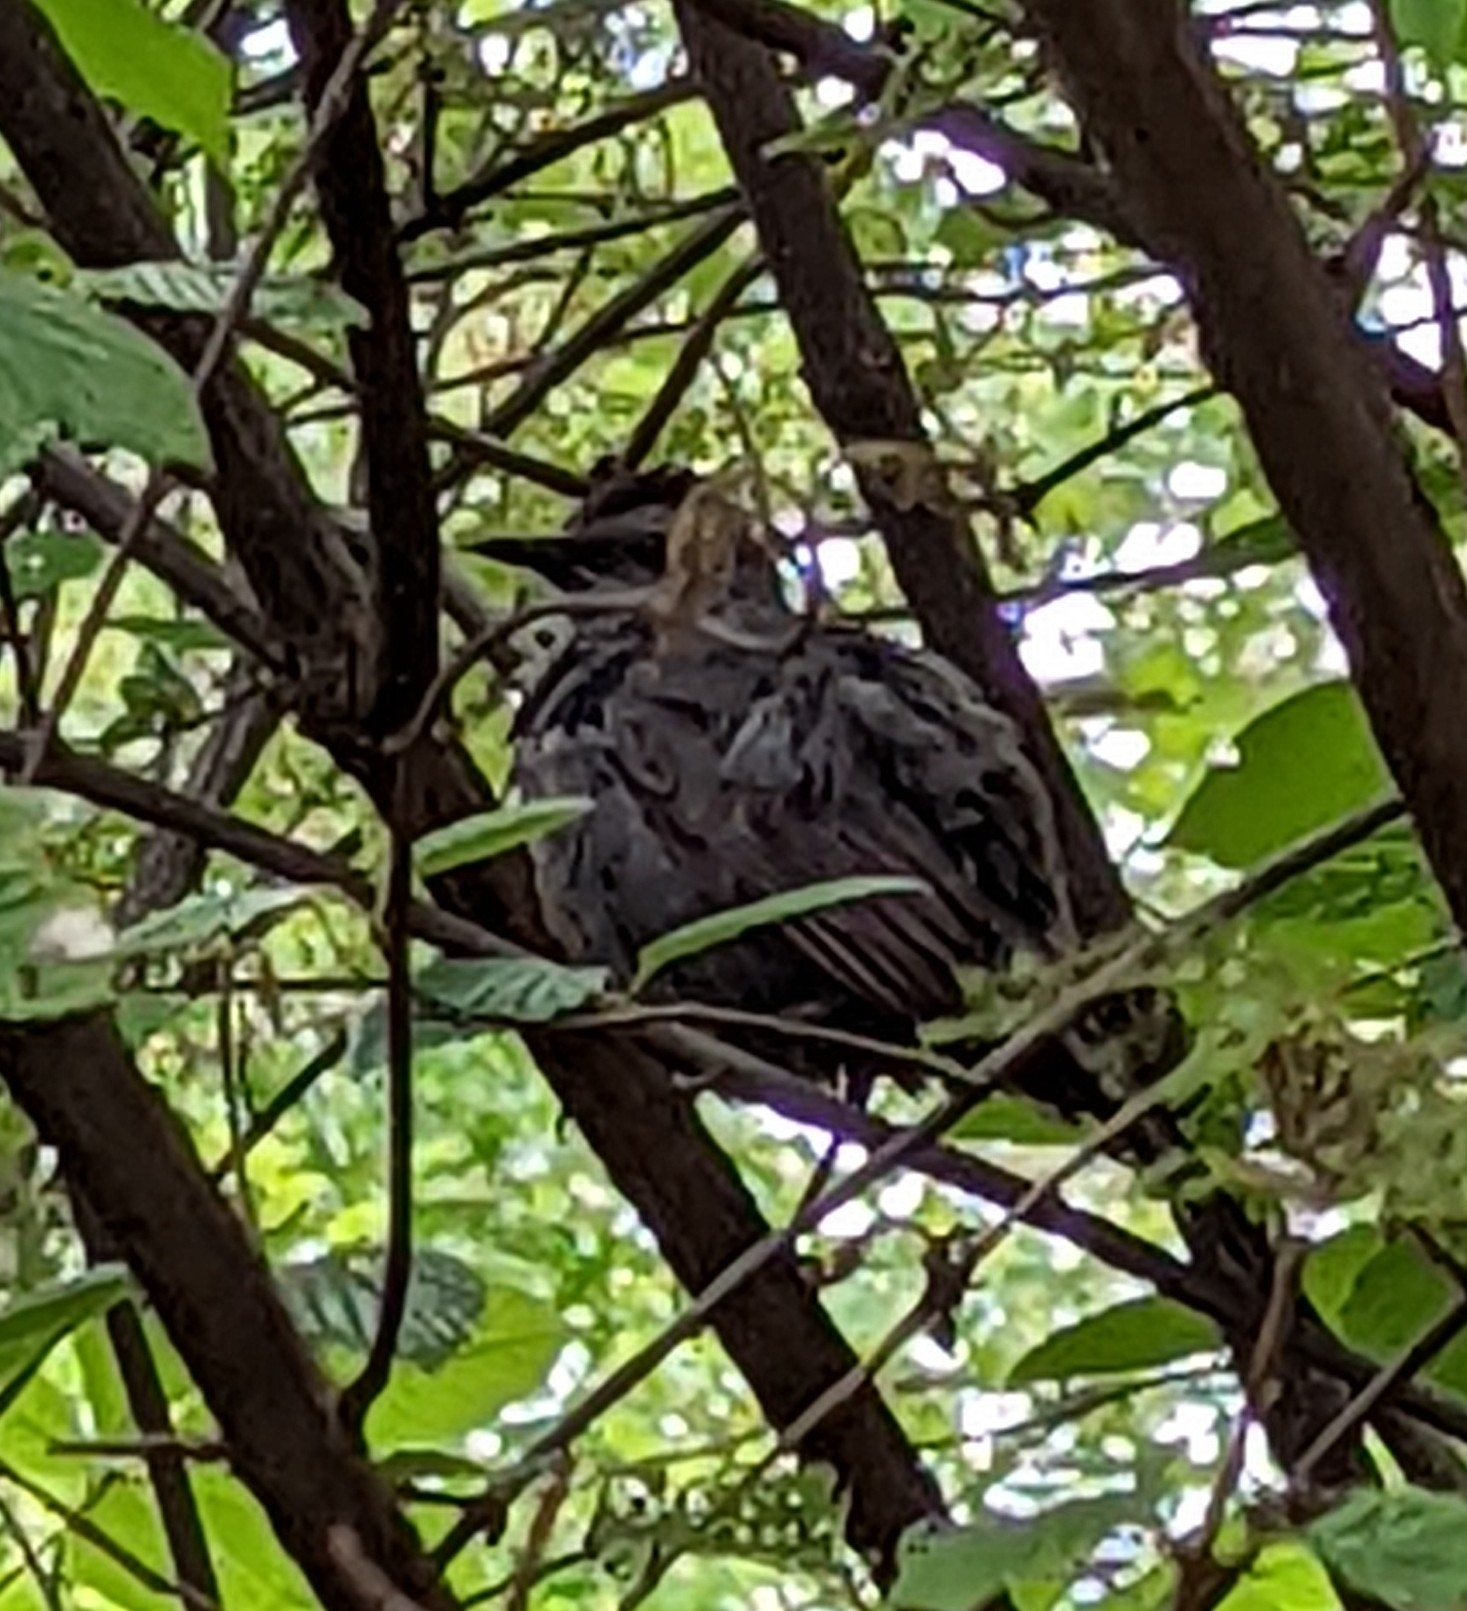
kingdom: Animalia
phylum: Chordata
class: Aves
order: Passeriformes
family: Mimidae
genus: Dumetella
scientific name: Dumetella carolinensis
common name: Gray catbird
